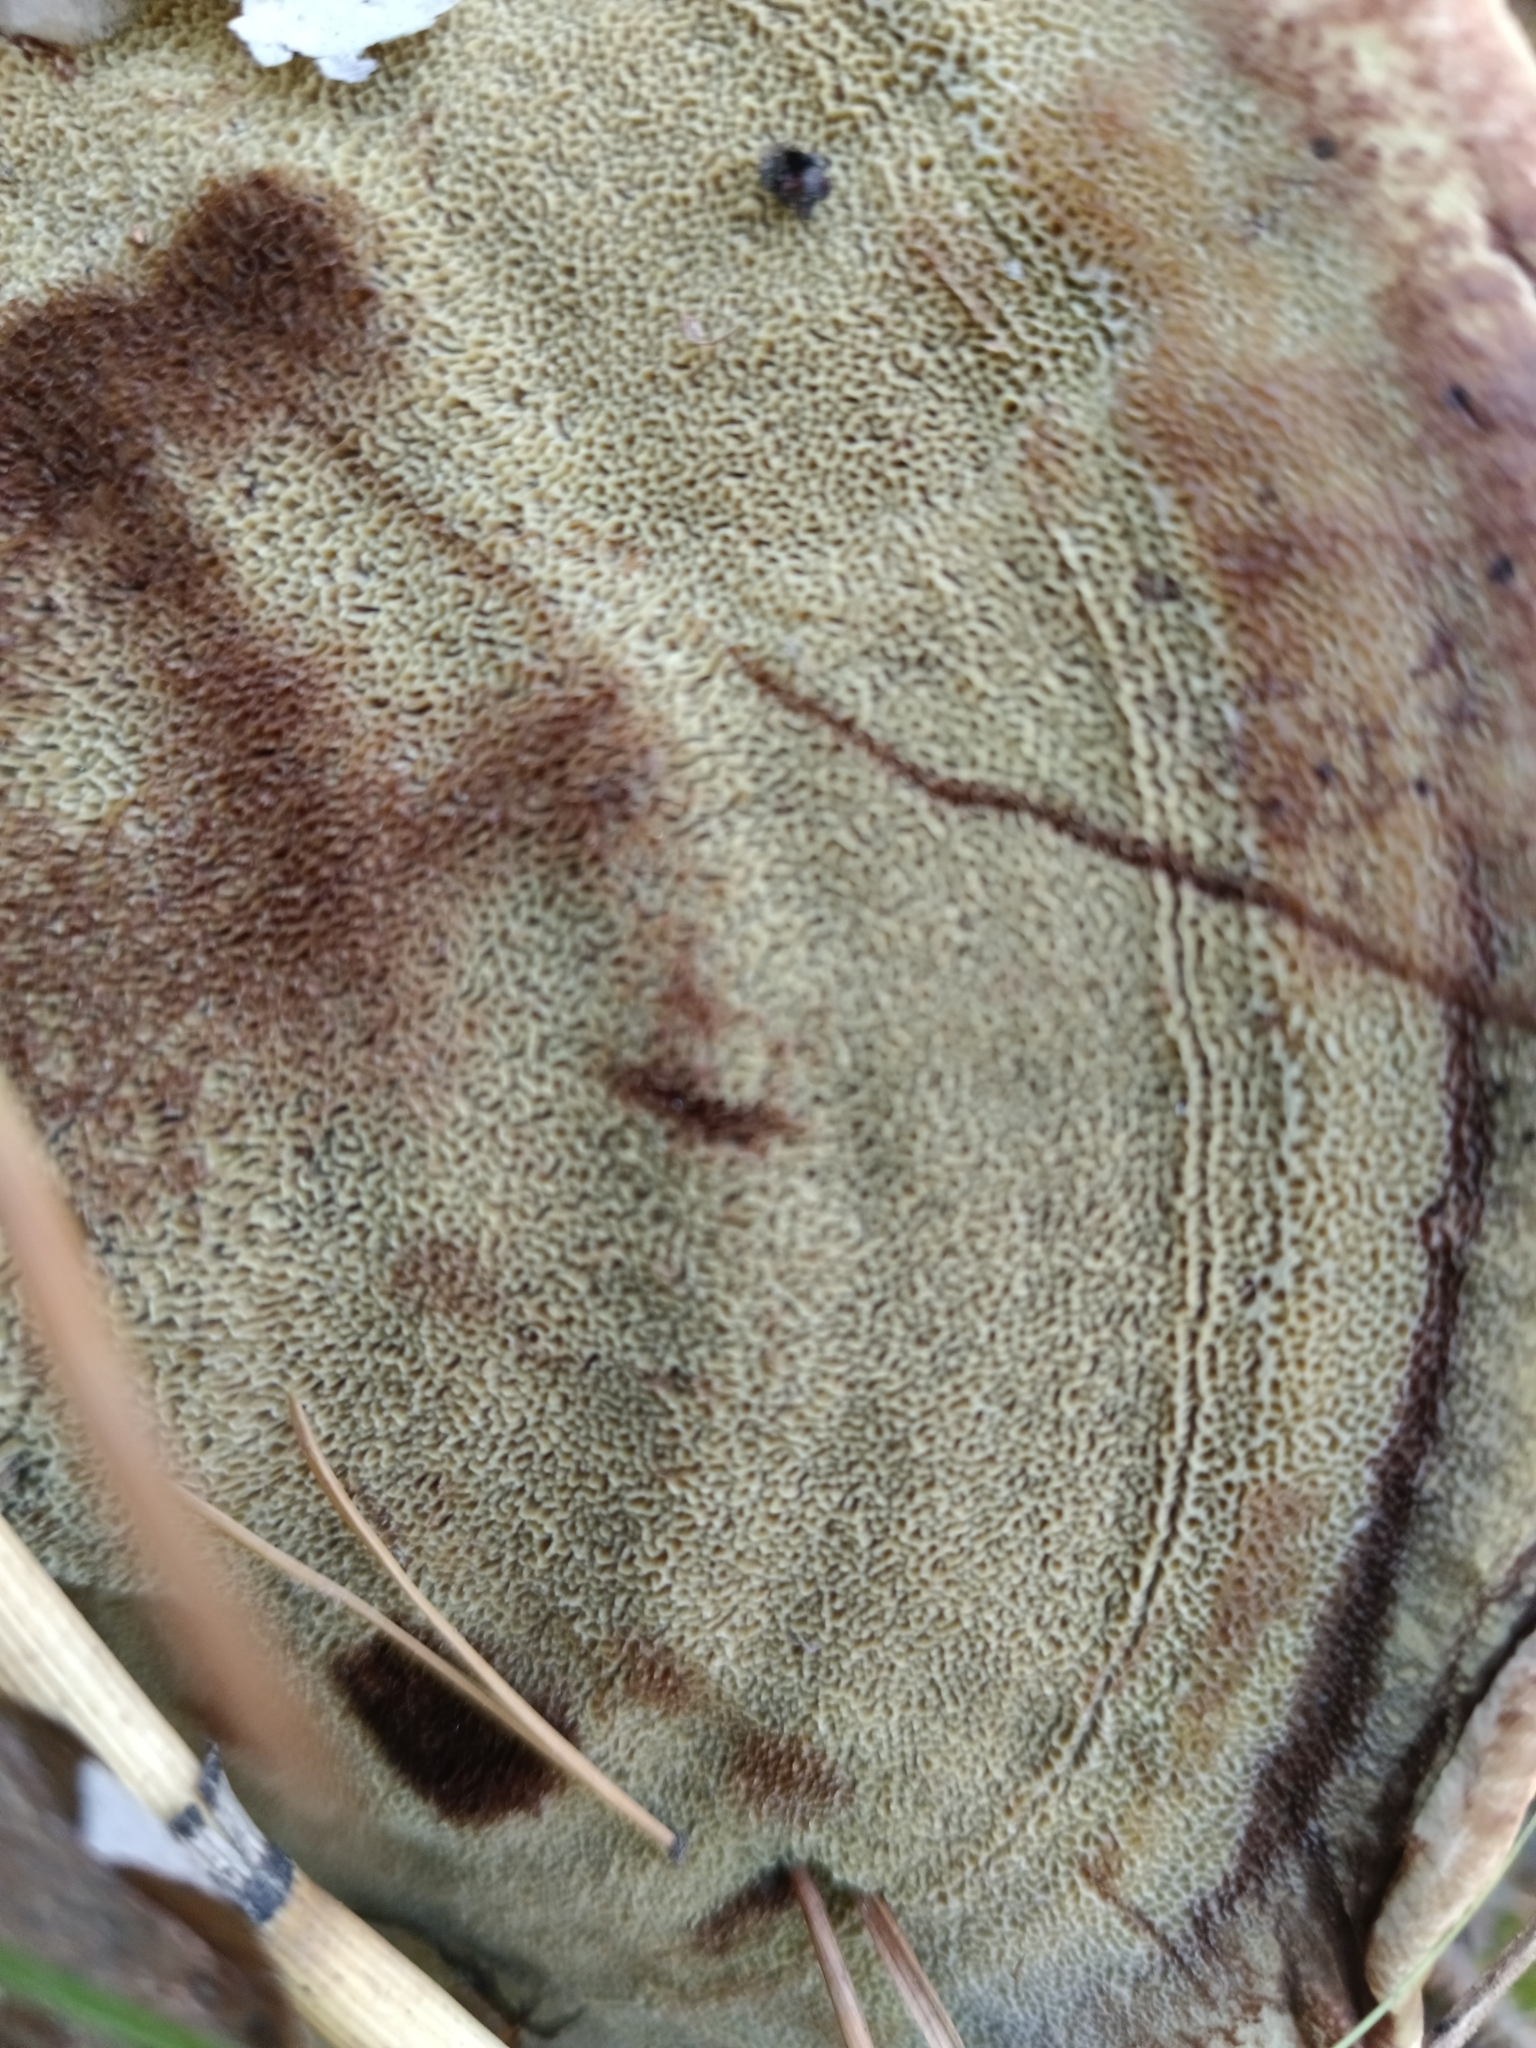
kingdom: Fungi
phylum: Basidiomycota
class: Agaricomycetes
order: Polyporales
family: Laetiporaceae
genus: Phaeolus
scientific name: Phaeolus schweinitzii
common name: Dyer's mazegill
